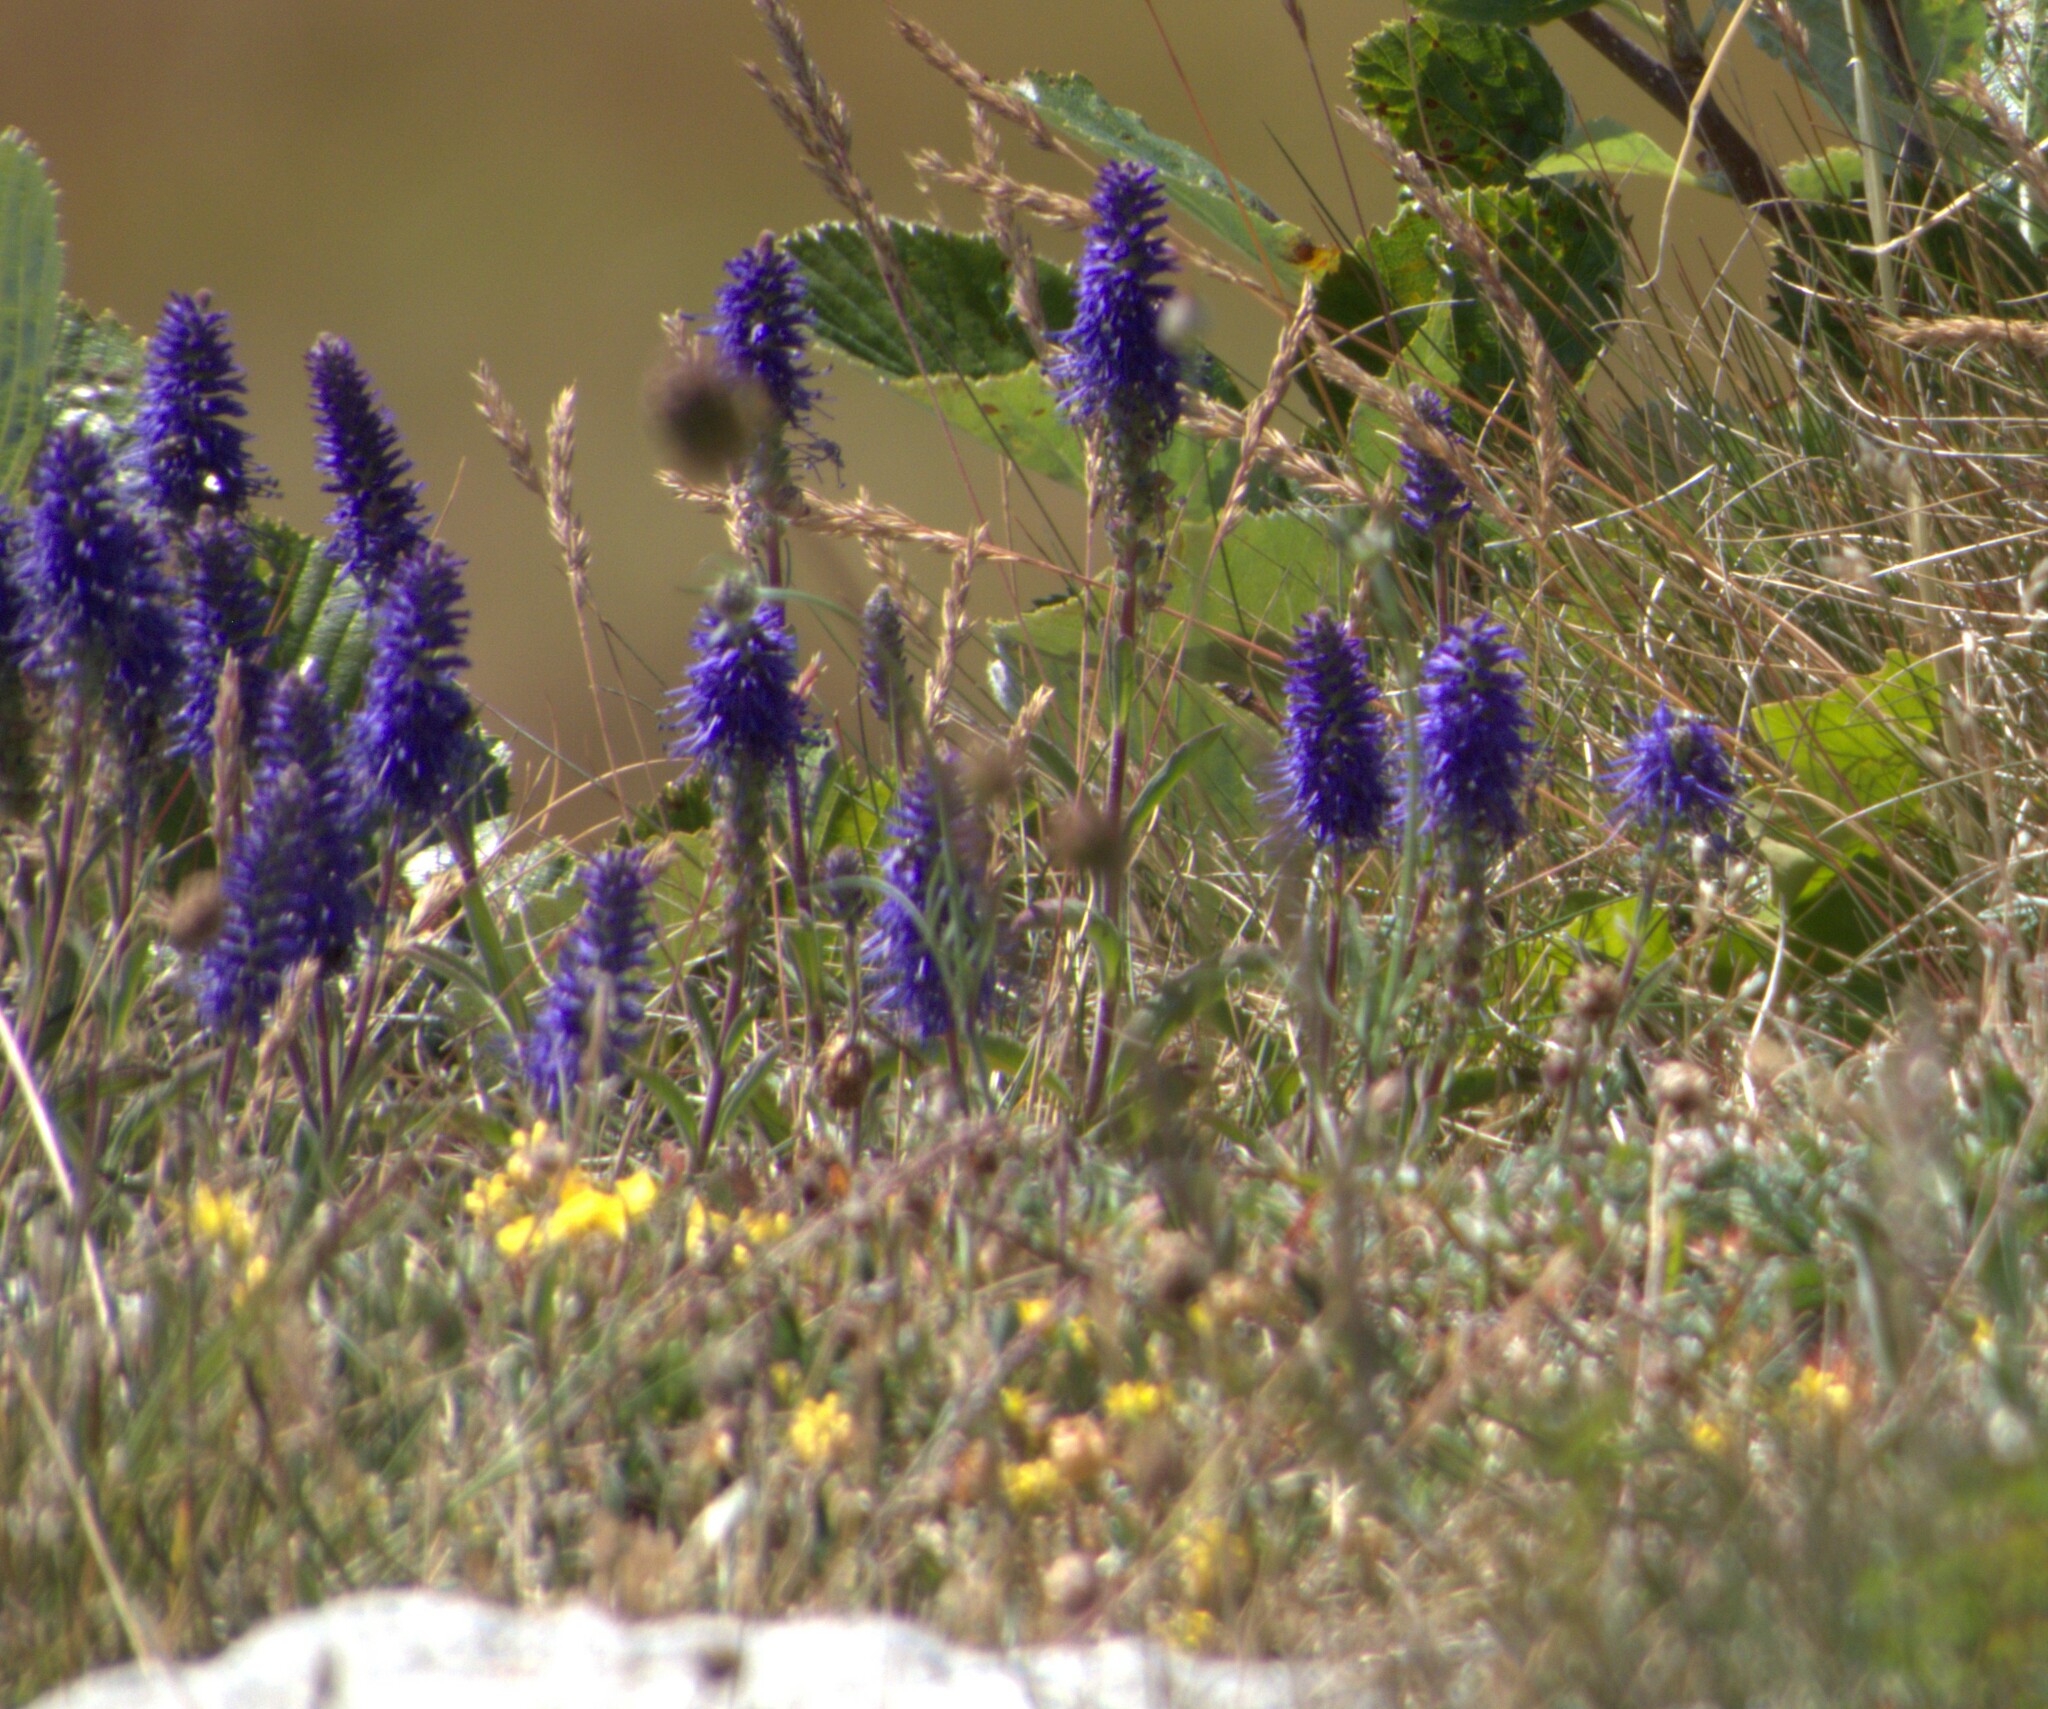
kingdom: Plantae
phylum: Tracheophyta
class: Magnoliopsida
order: Lamiales
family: Plantaginaceae
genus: Veronica
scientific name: Veronica spicata
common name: Spiked speedwell
